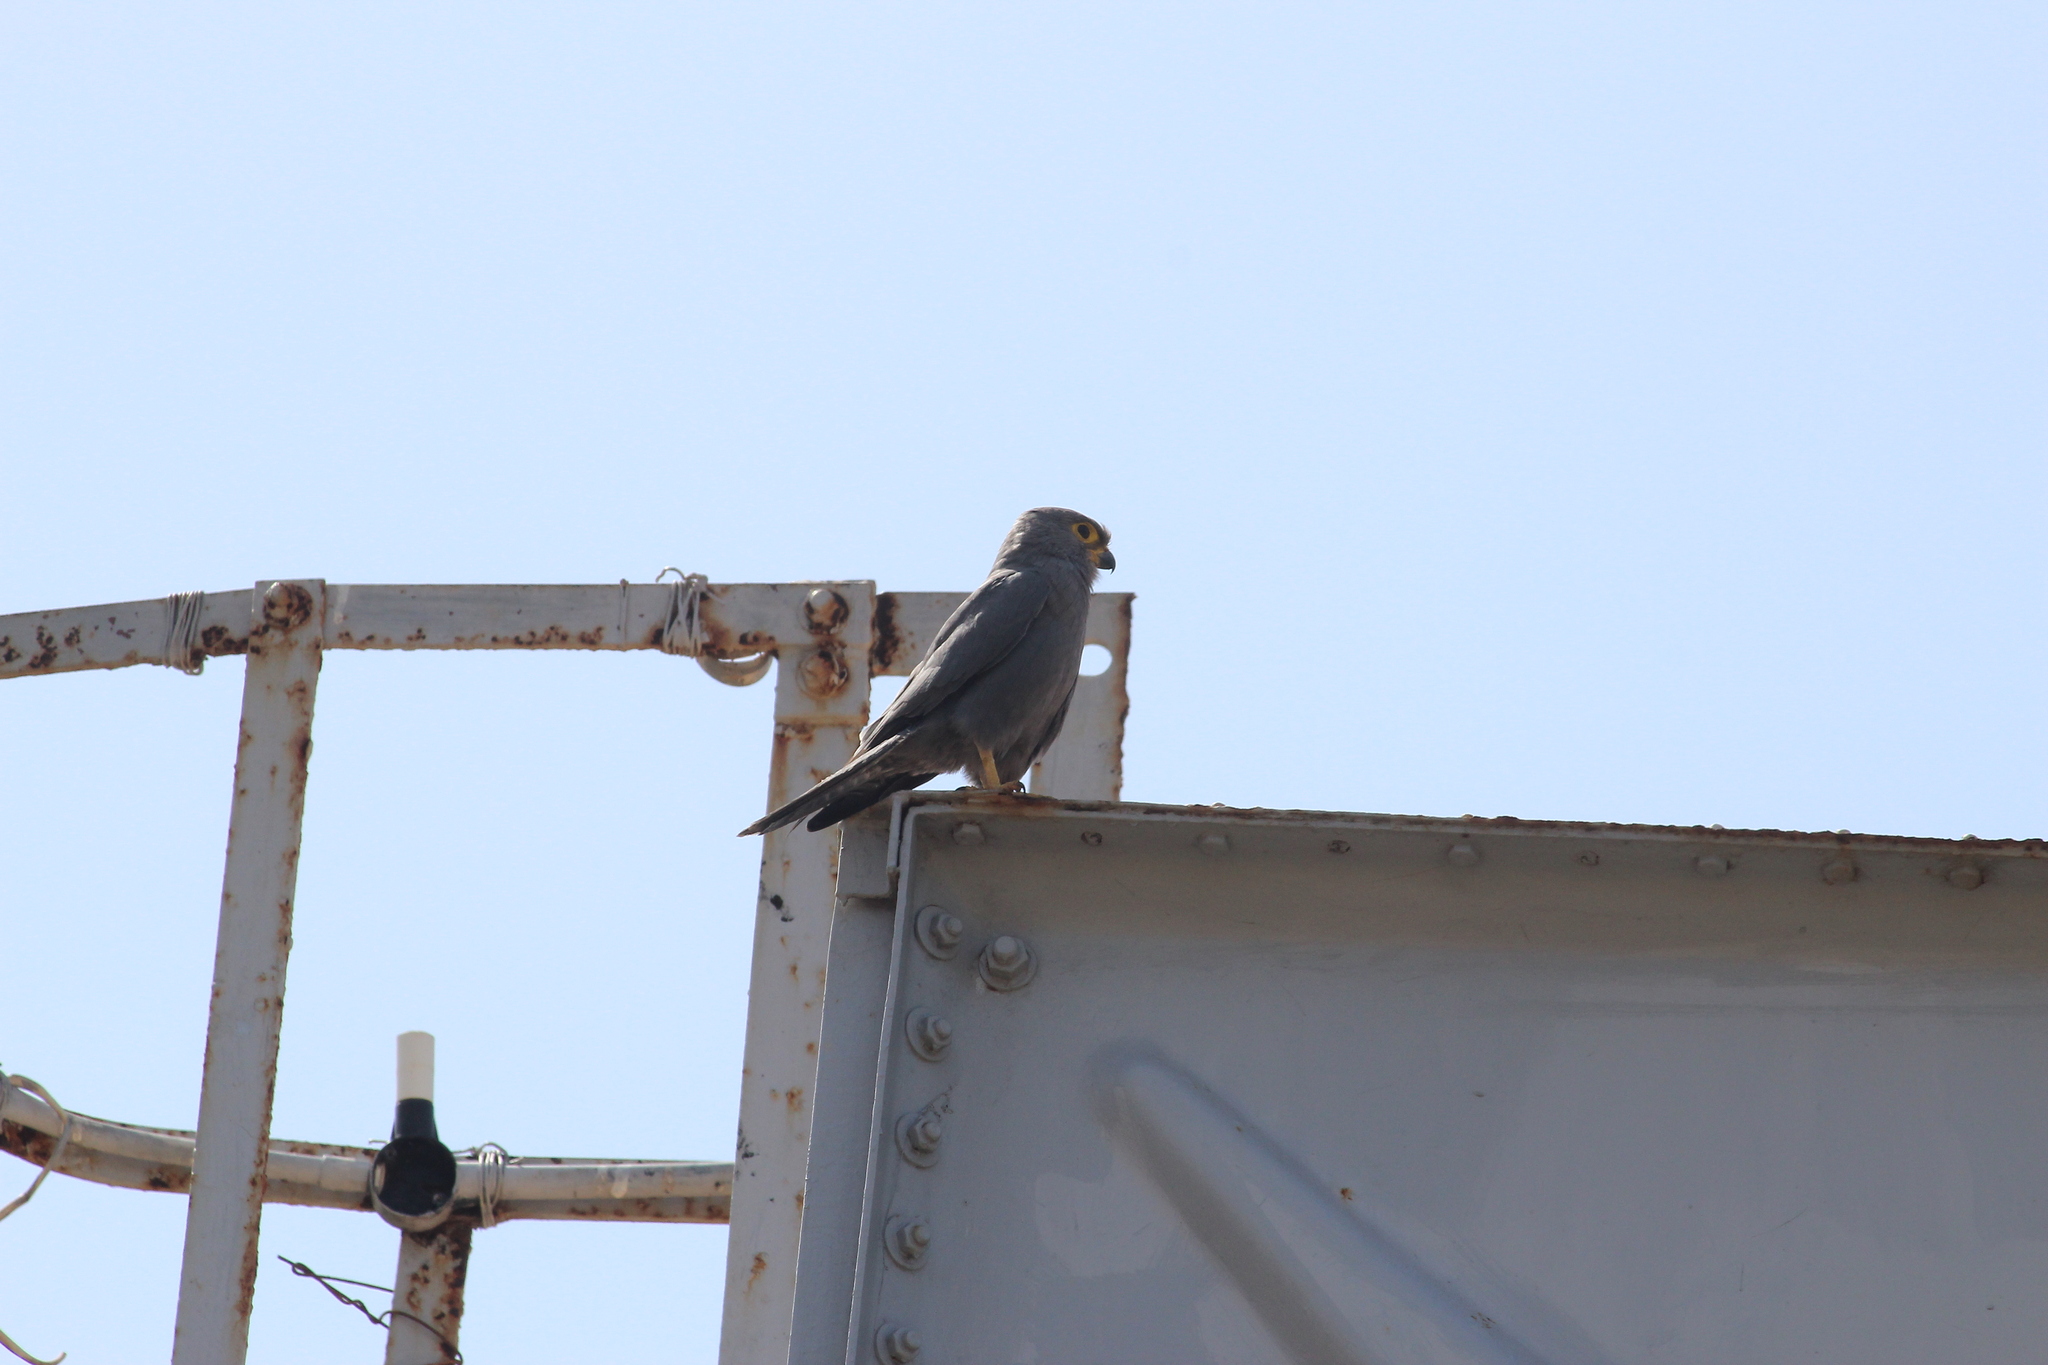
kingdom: Animalia
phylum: Chordata
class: Aves
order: Falconiformes
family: Falconidae
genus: Falco
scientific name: Falco ardosiaceus
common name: Grey kestrel
